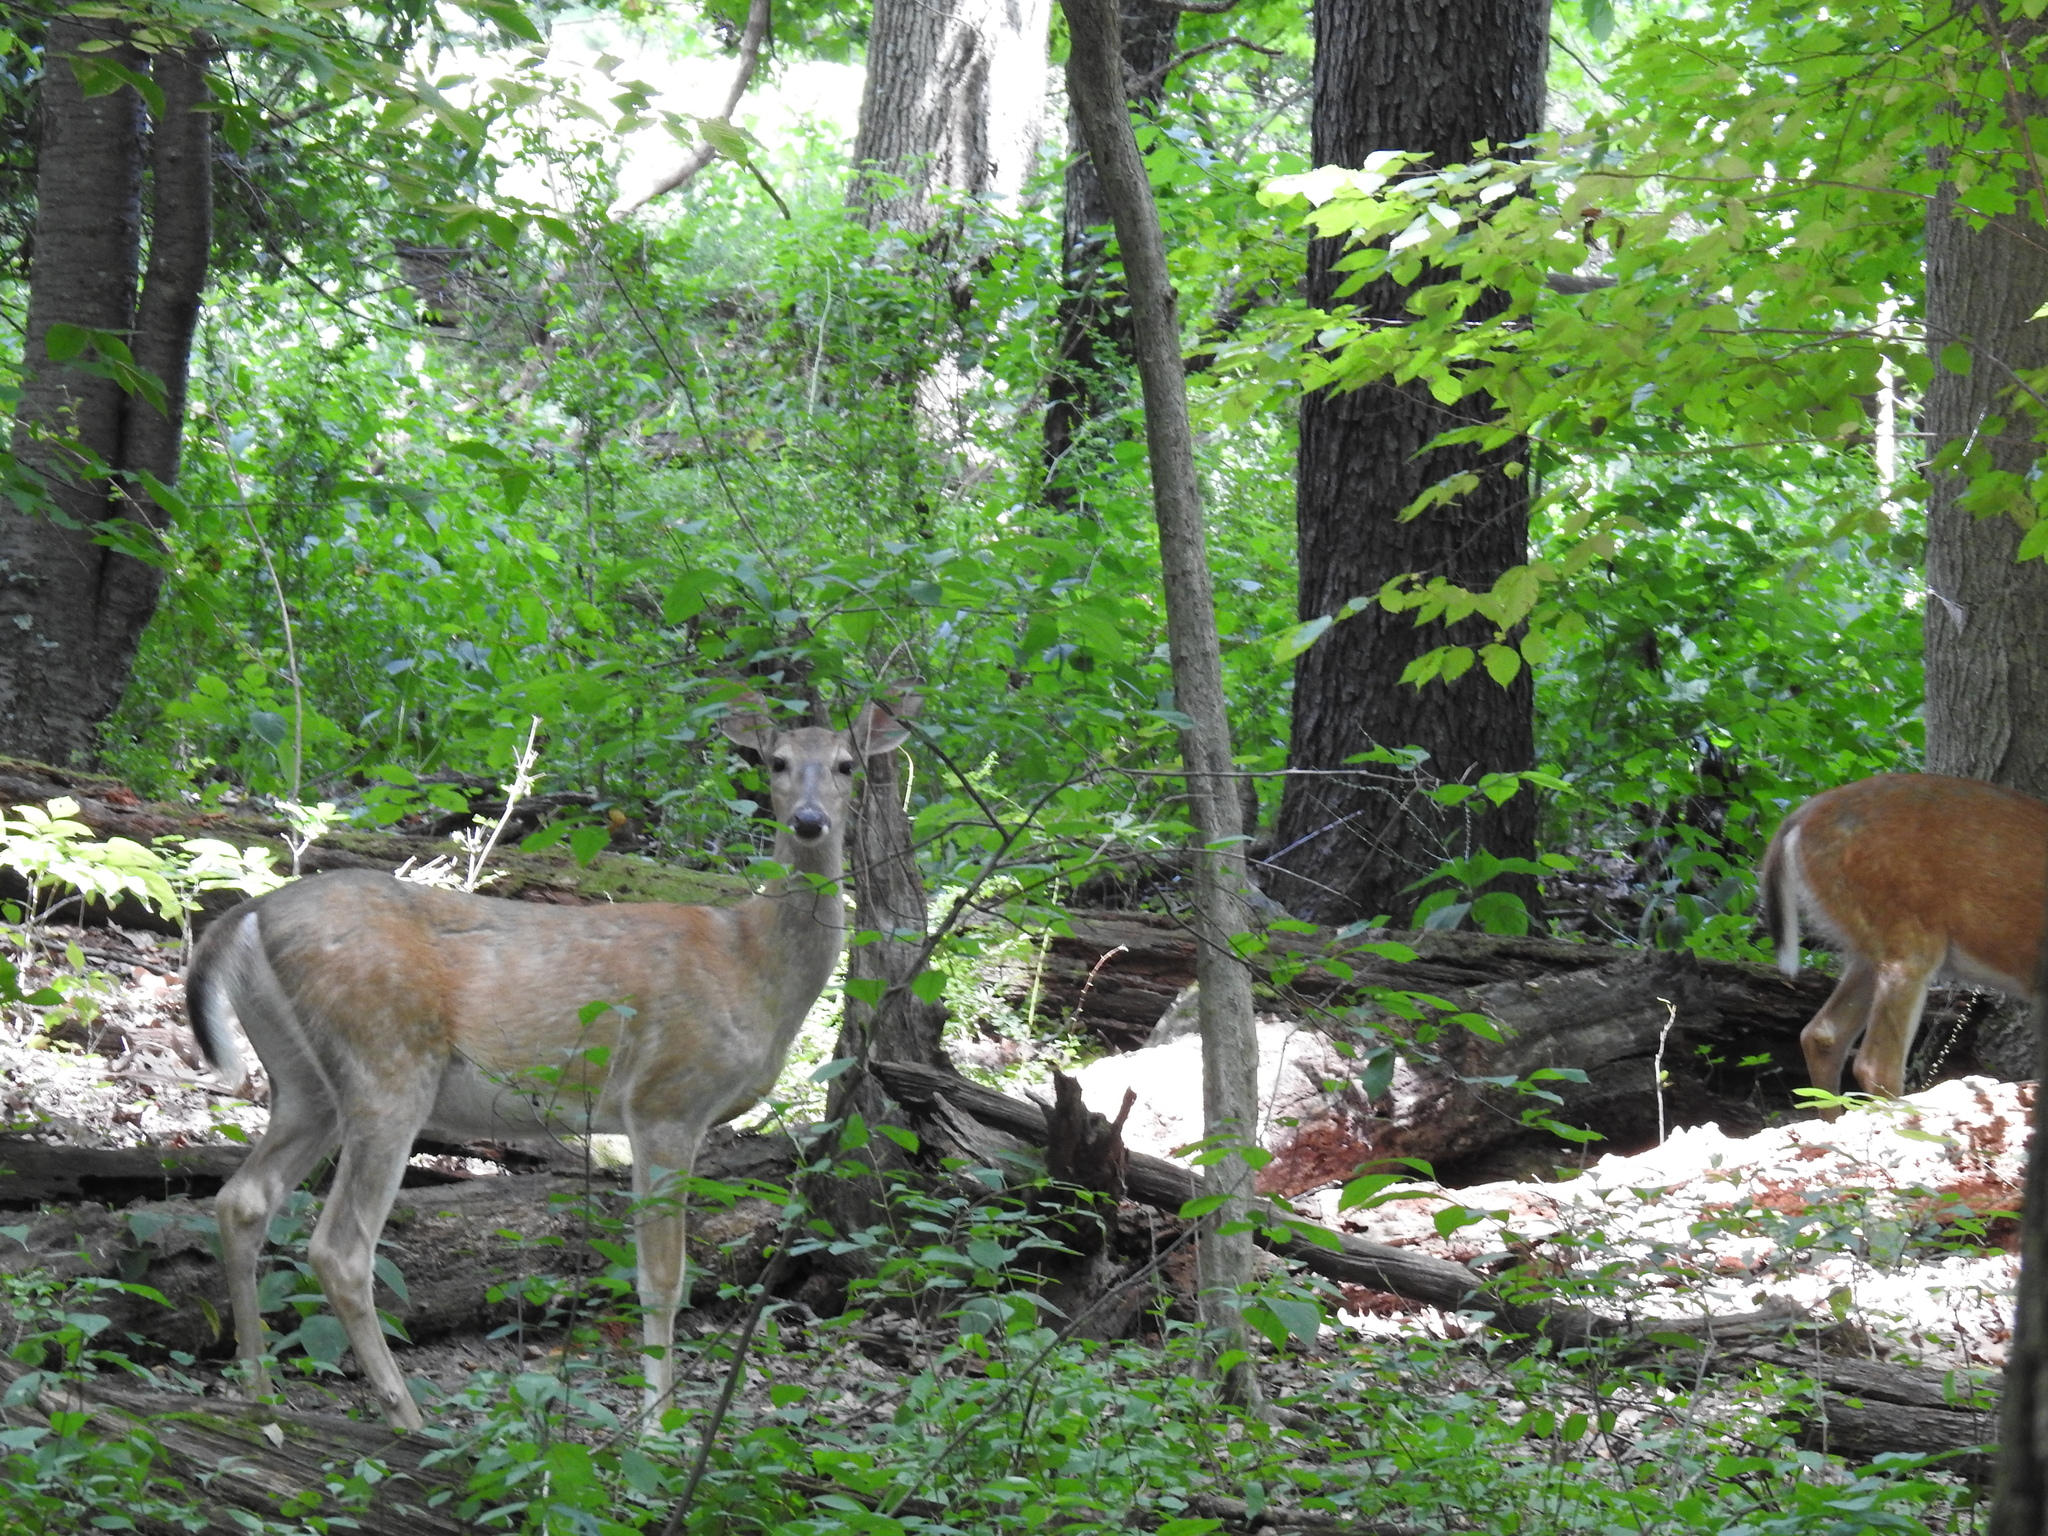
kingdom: Animalia
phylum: Chordata
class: Mammalia
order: Artiodactyla
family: Cervidae
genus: Odocoileus
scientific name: Odocoileus virginianus
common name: White-tailed deer
